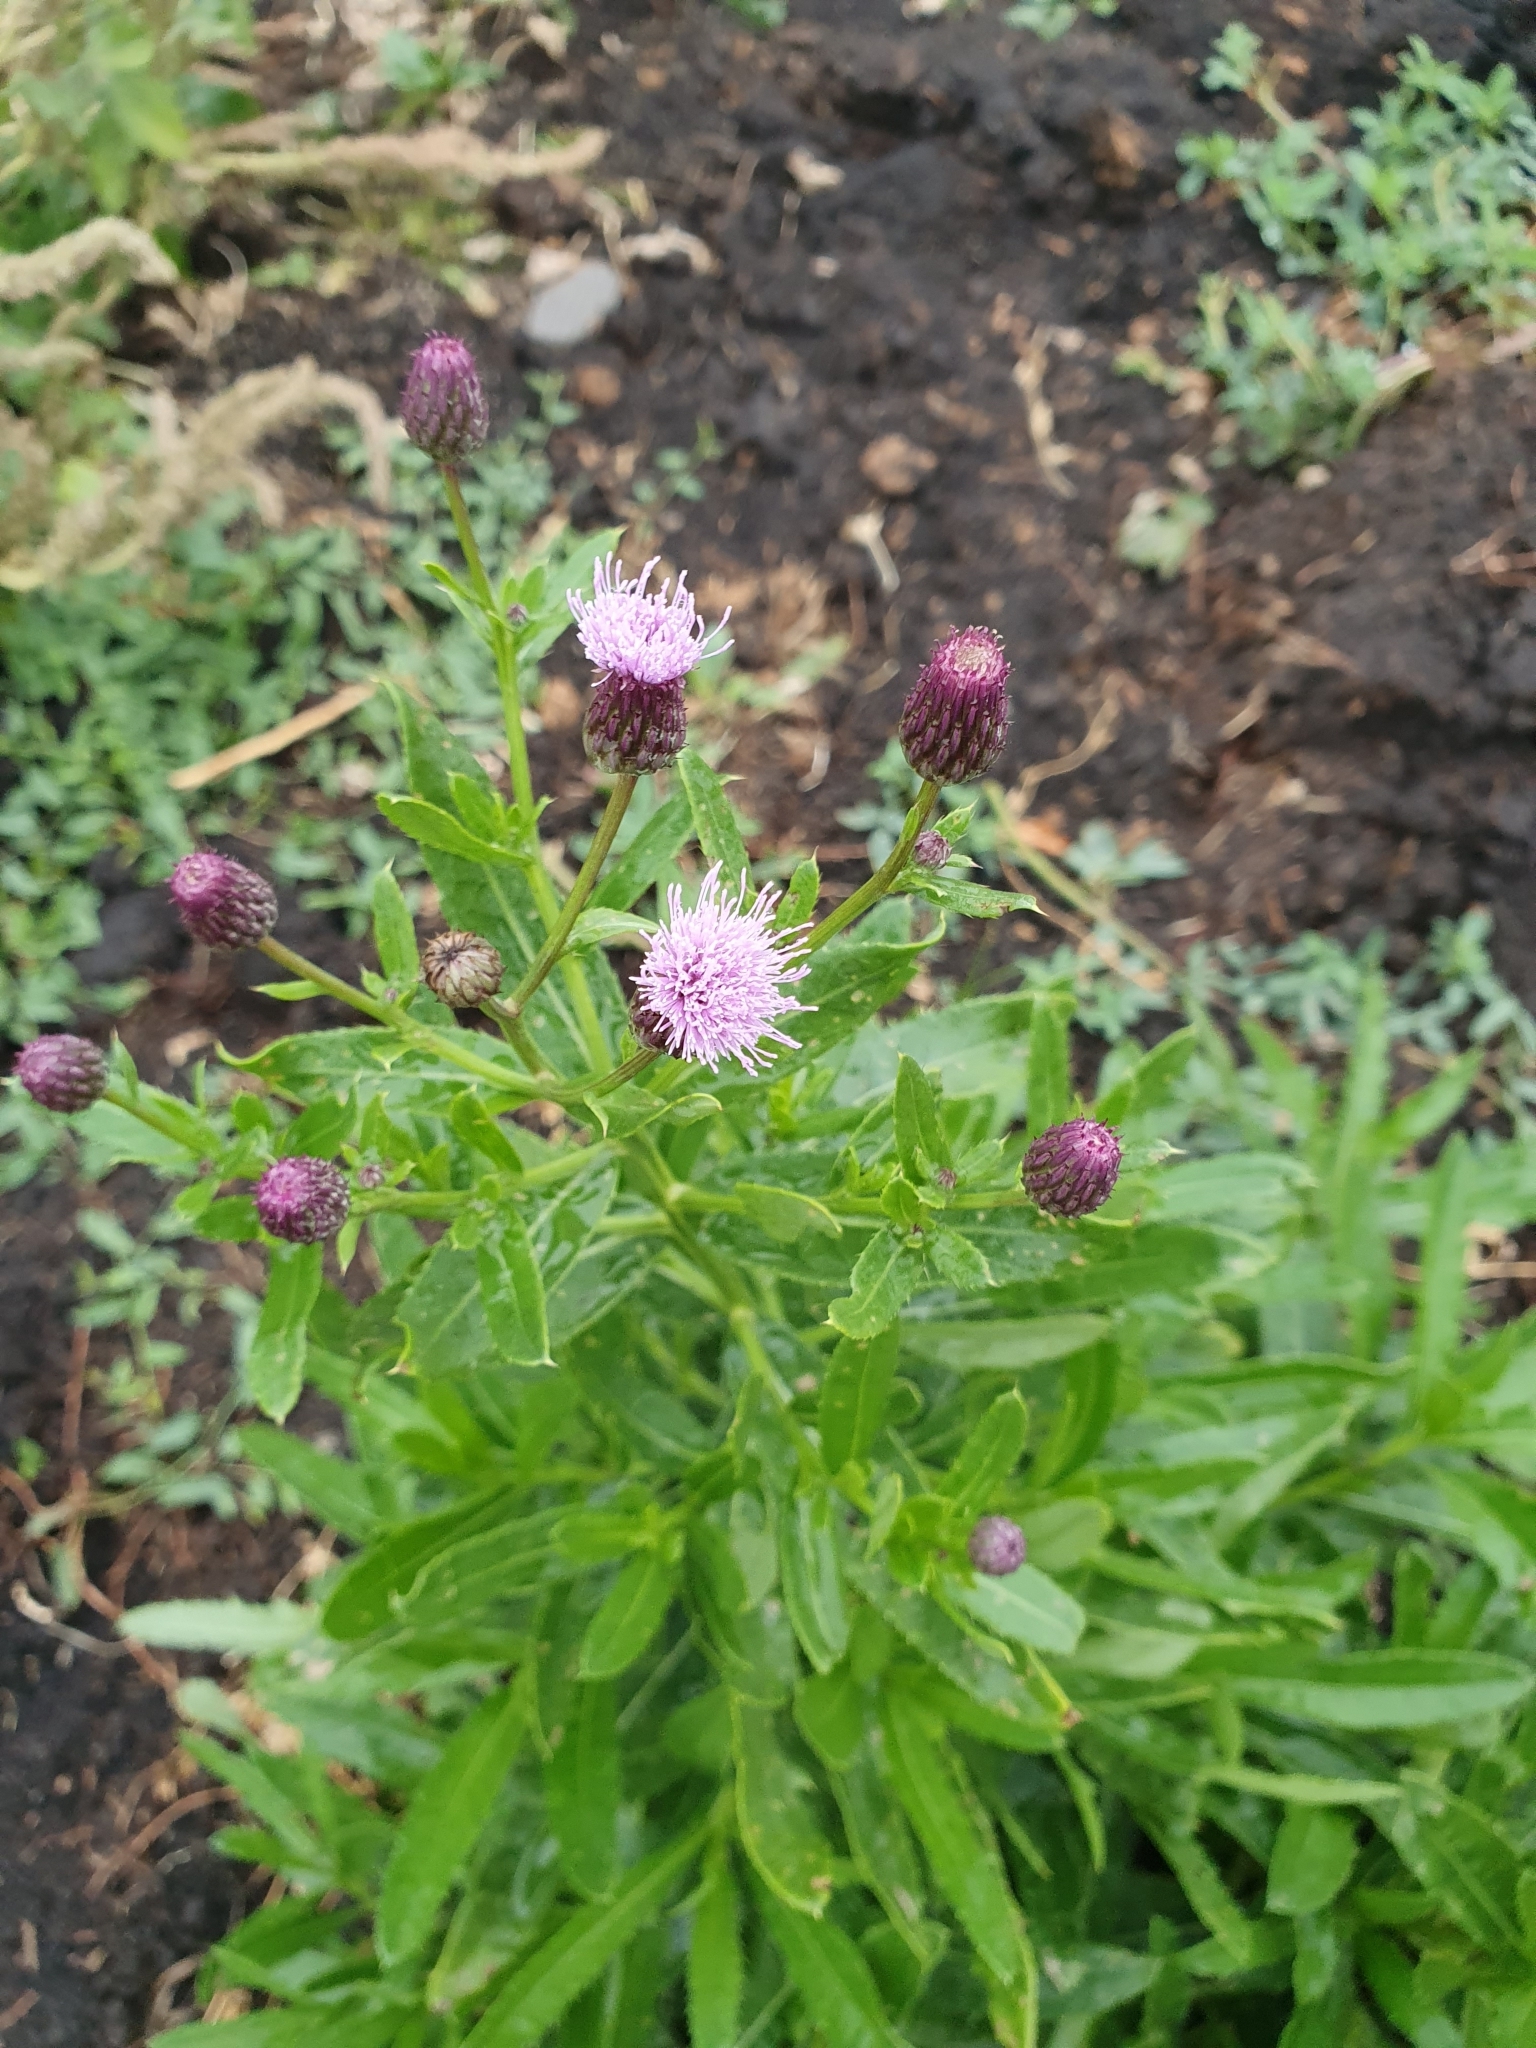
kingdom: Plantae
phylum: Tracheophyta
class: Magnoliopsida
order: Asterales
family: Asteraceae
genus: Cirsium
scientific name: Cirsium arvense
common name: Creeping thistle
